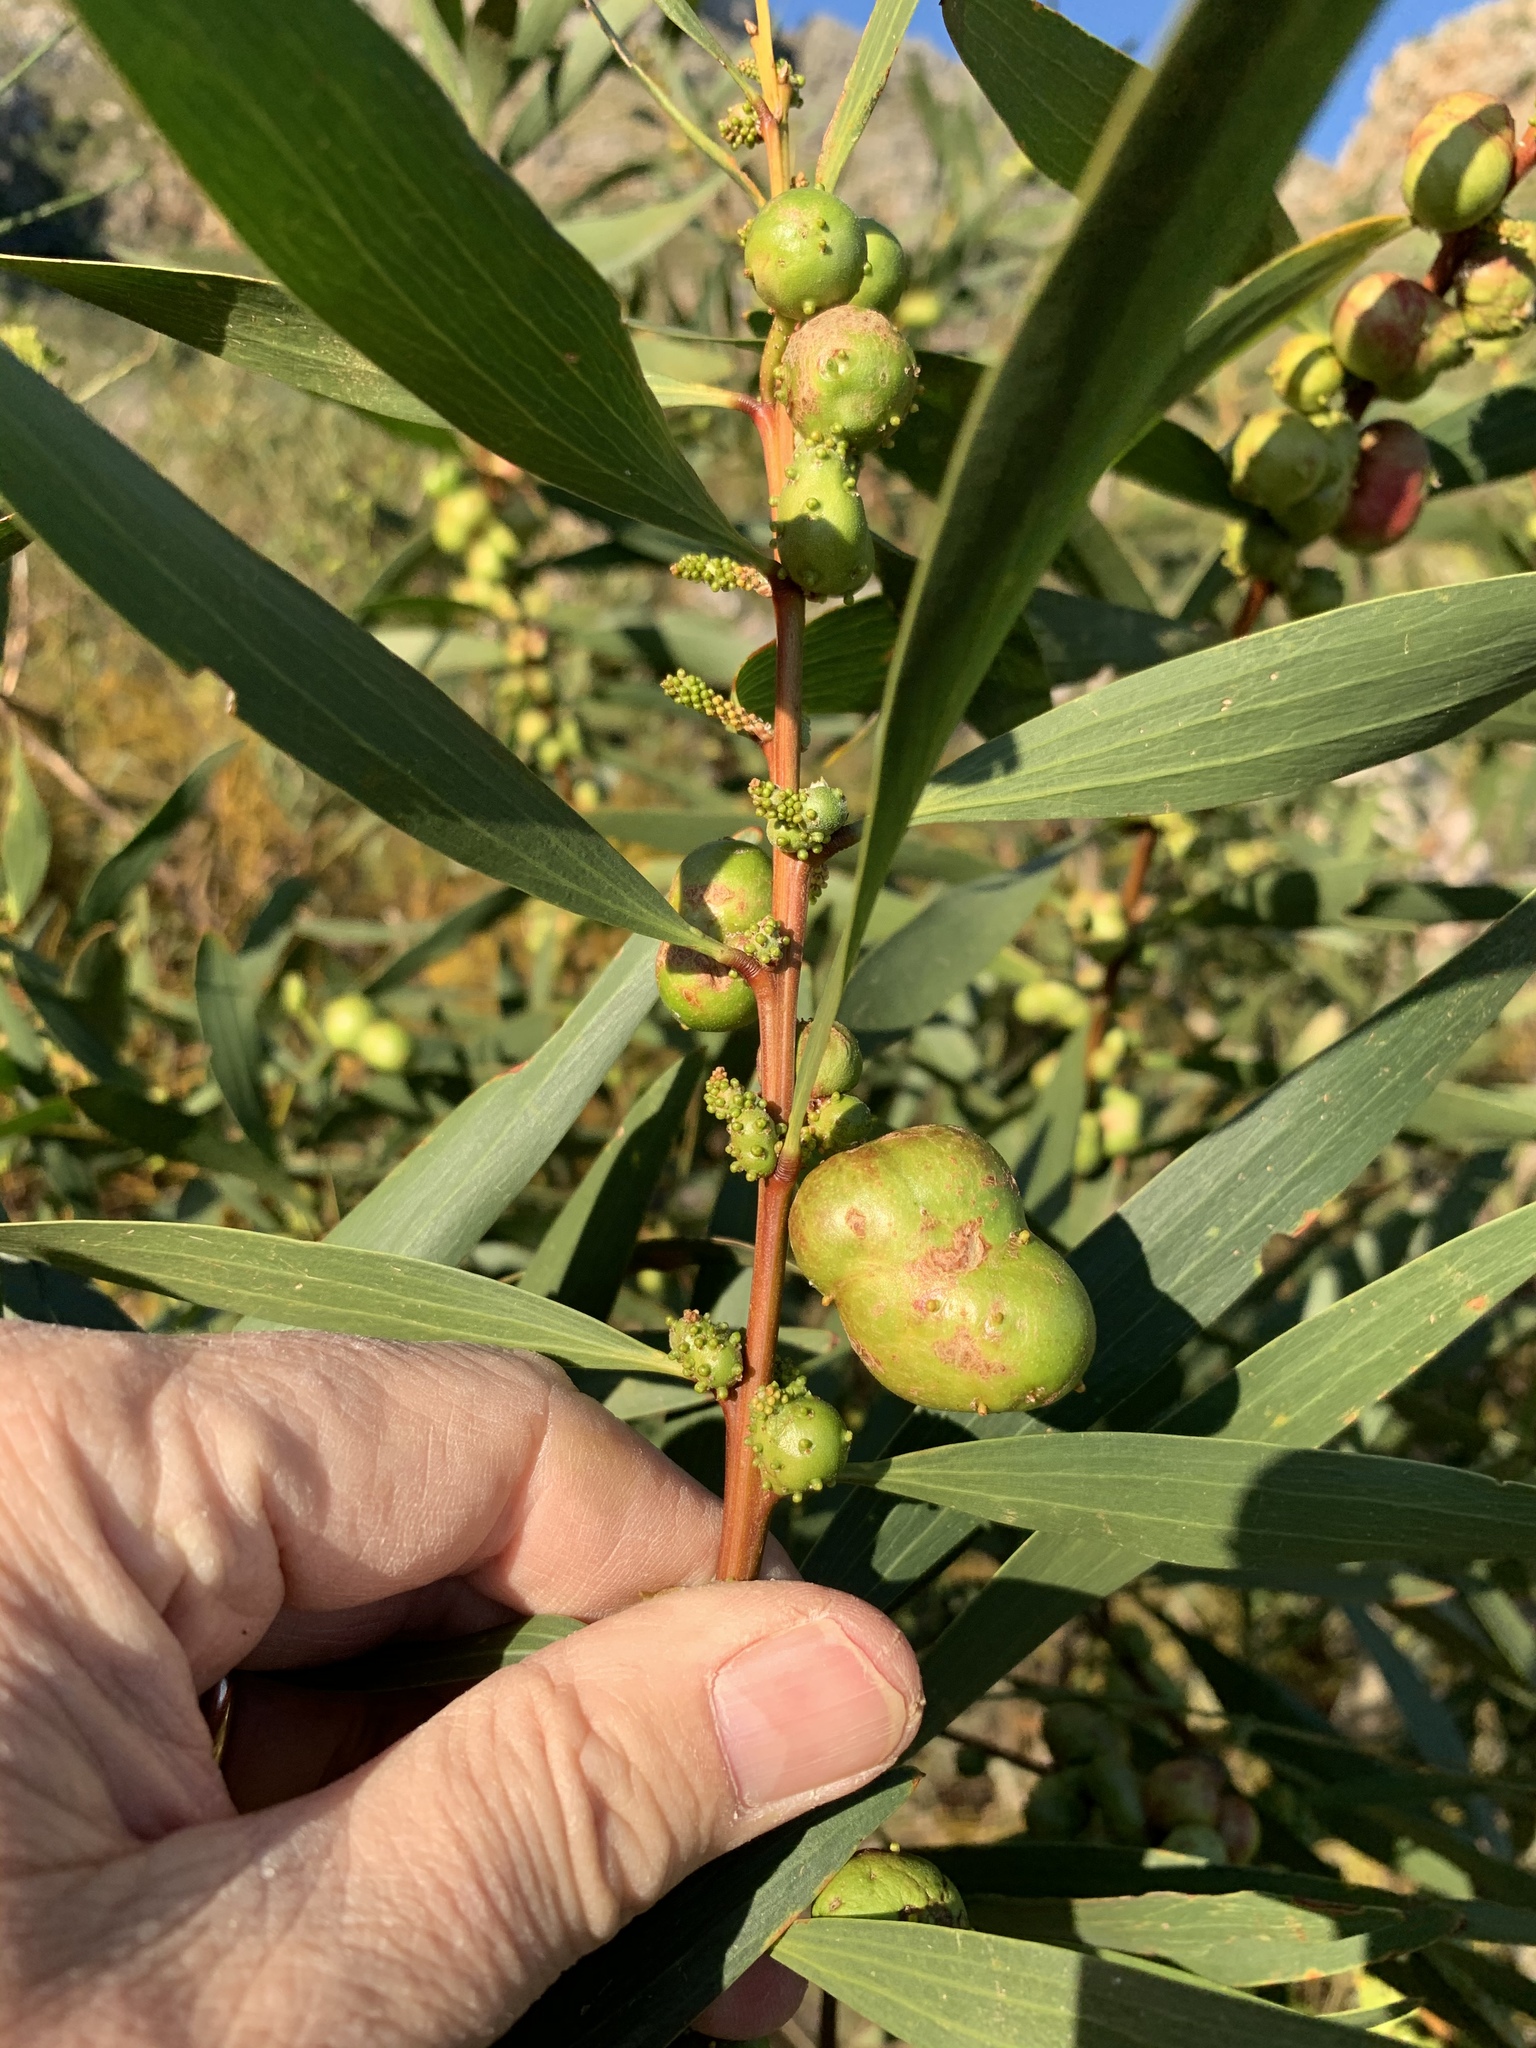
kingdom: Animalia
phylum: Arthropoda
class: Insecta
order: Hymenoptera
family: Pteromalidae
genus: Trichilogaster
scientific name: Trichilogaster acaciaelongifoliae
